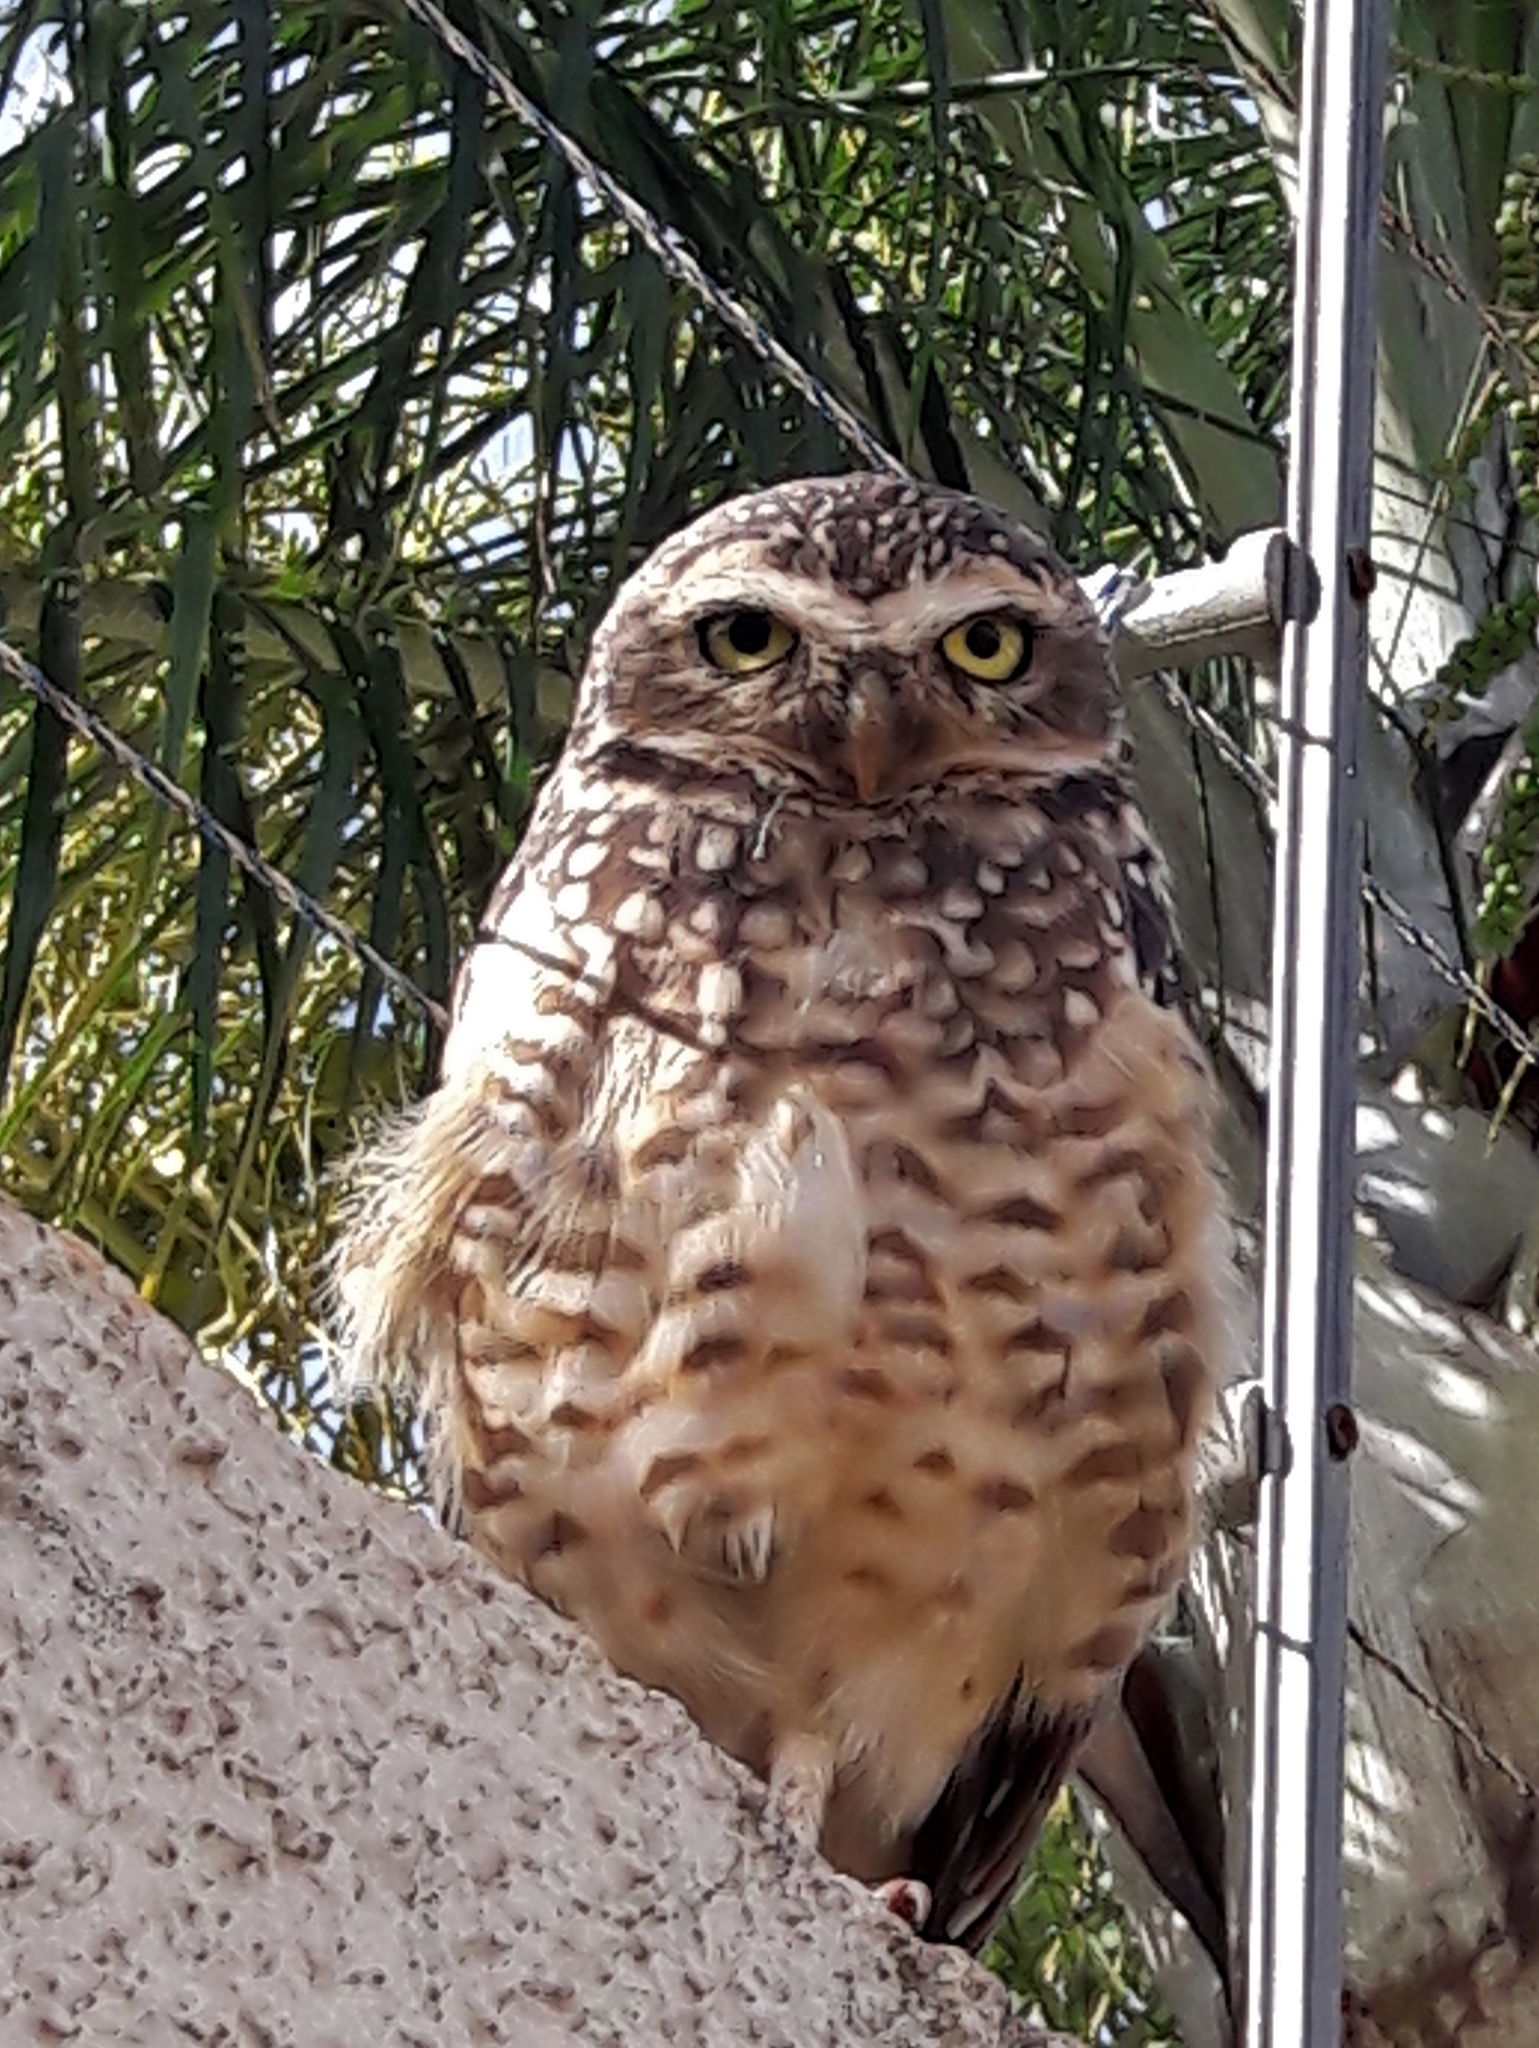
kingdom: Animalia
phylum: Chordata
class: Aves
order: Strigiformes
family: Strigidae
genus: Athene
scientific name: Athene cunicularia
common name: Burrowing owl
